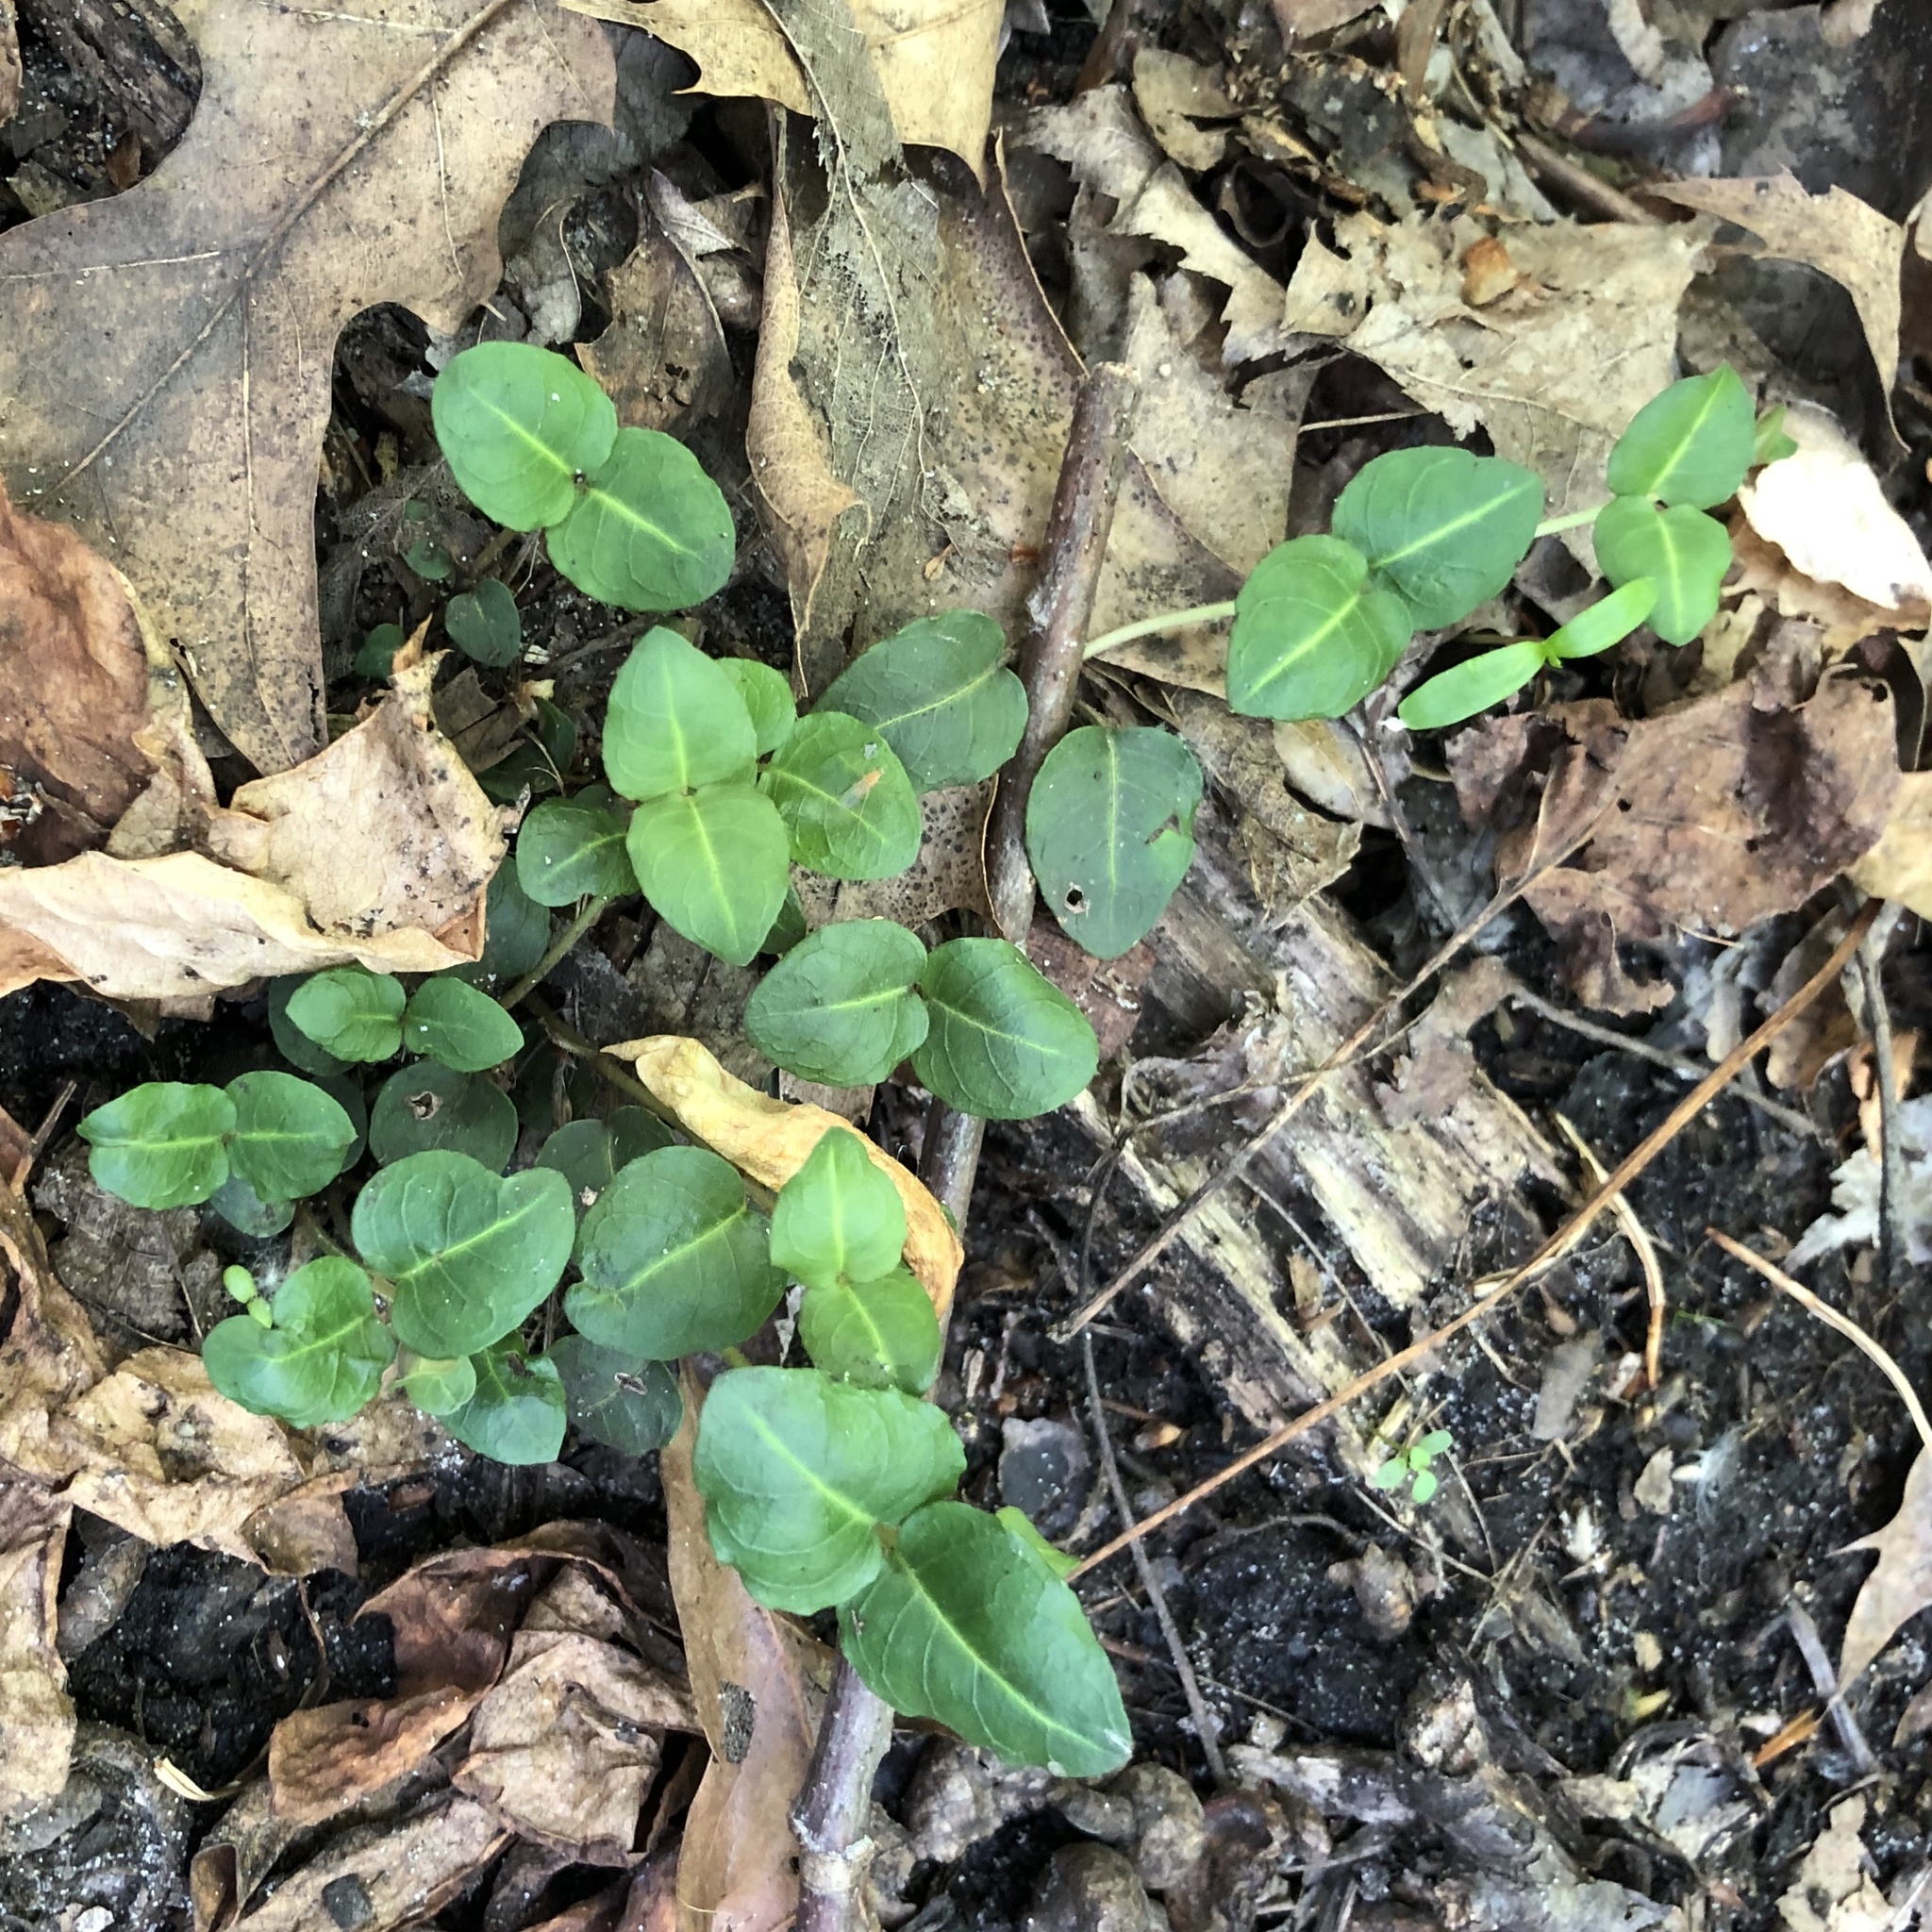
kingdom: Plantae
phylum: Tracheophyta
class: Magnoliopsida
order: Gentianales
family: Rubiaceae
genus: Mitchella
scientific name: Mitchella repens
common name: Partridge-berry
